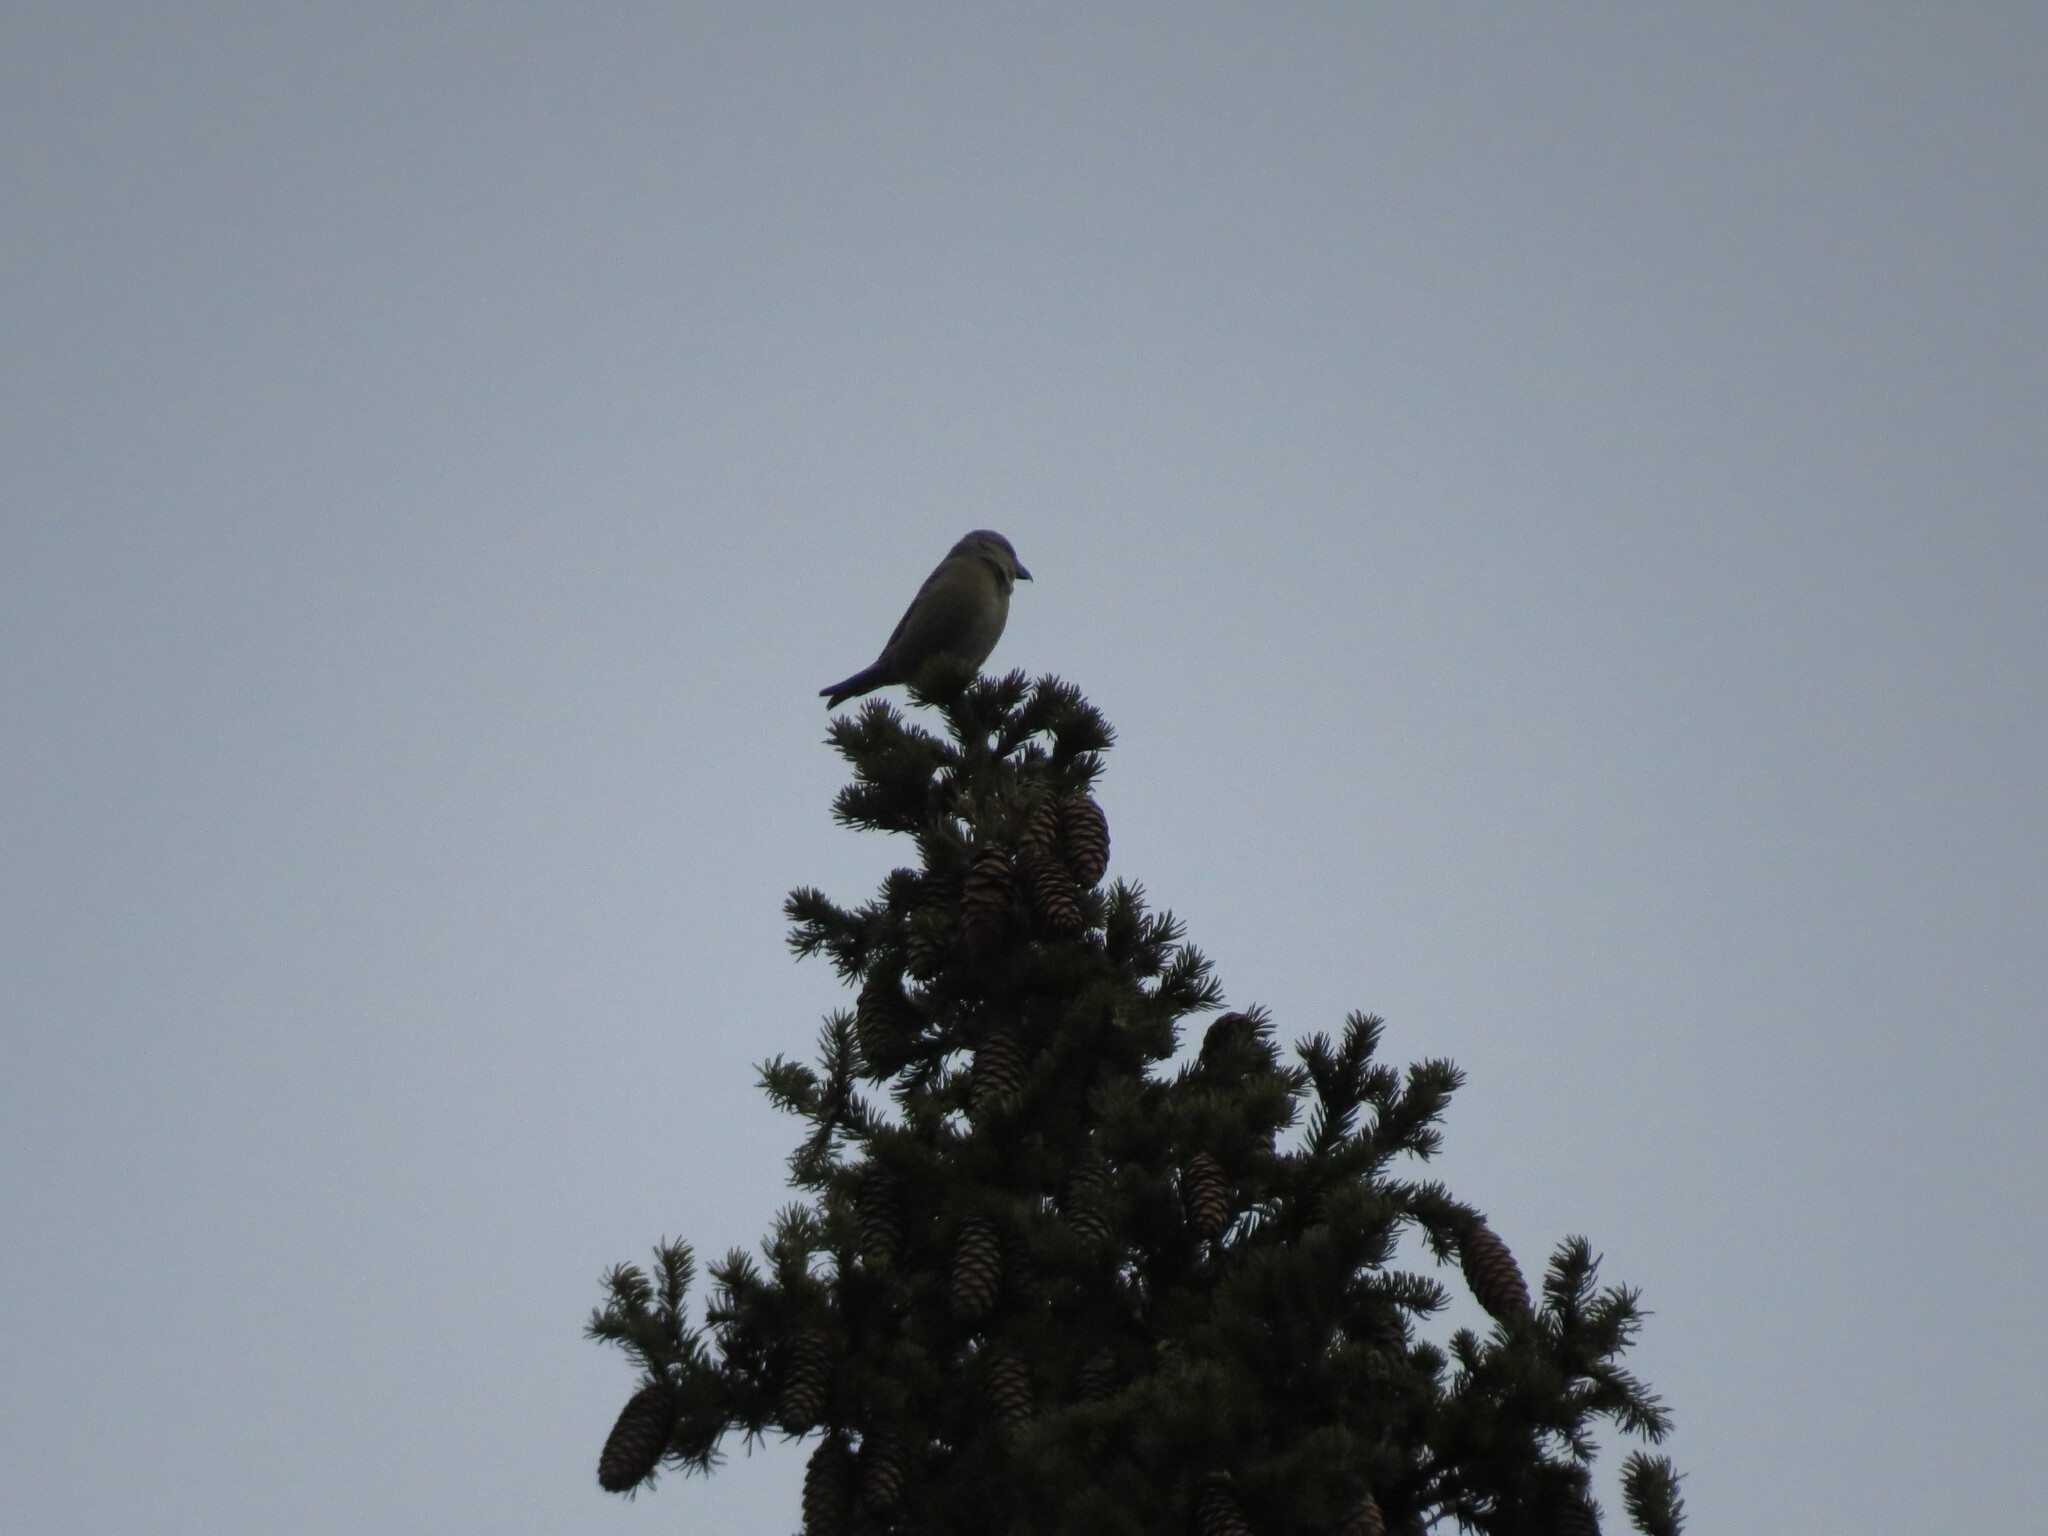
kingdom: Animalia
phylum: Chordata
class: Aves
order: Passeriformes
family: Fringillidae
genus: Loxia
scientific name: Loxia curvirostra
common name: Red crossbill
